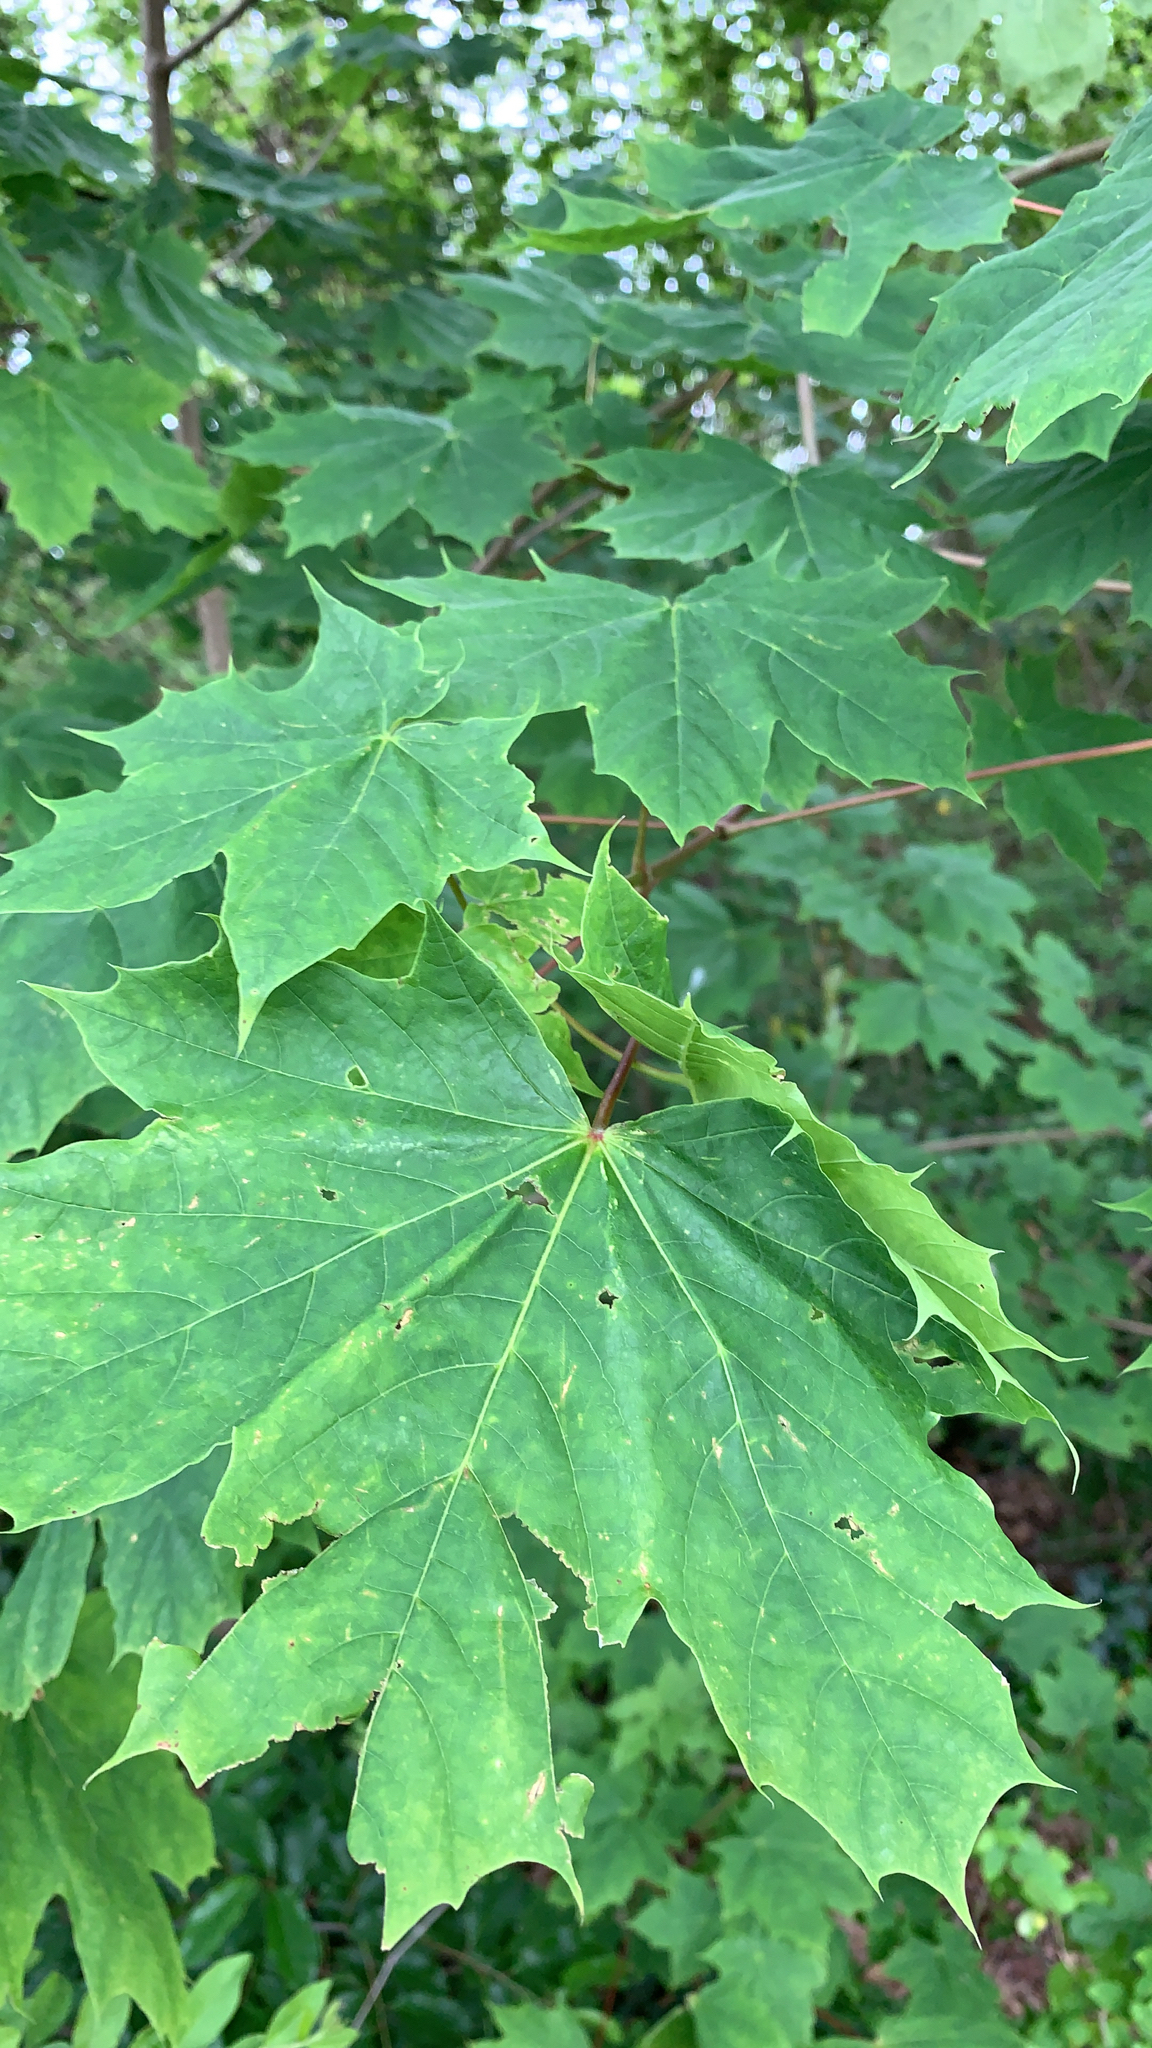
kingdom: Plantae
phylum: Tracheophyta
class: Magnoliopsida
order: Sapindales
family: Sapindaceae
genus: Acer
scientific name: Acer platanoides
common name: Norway maple
